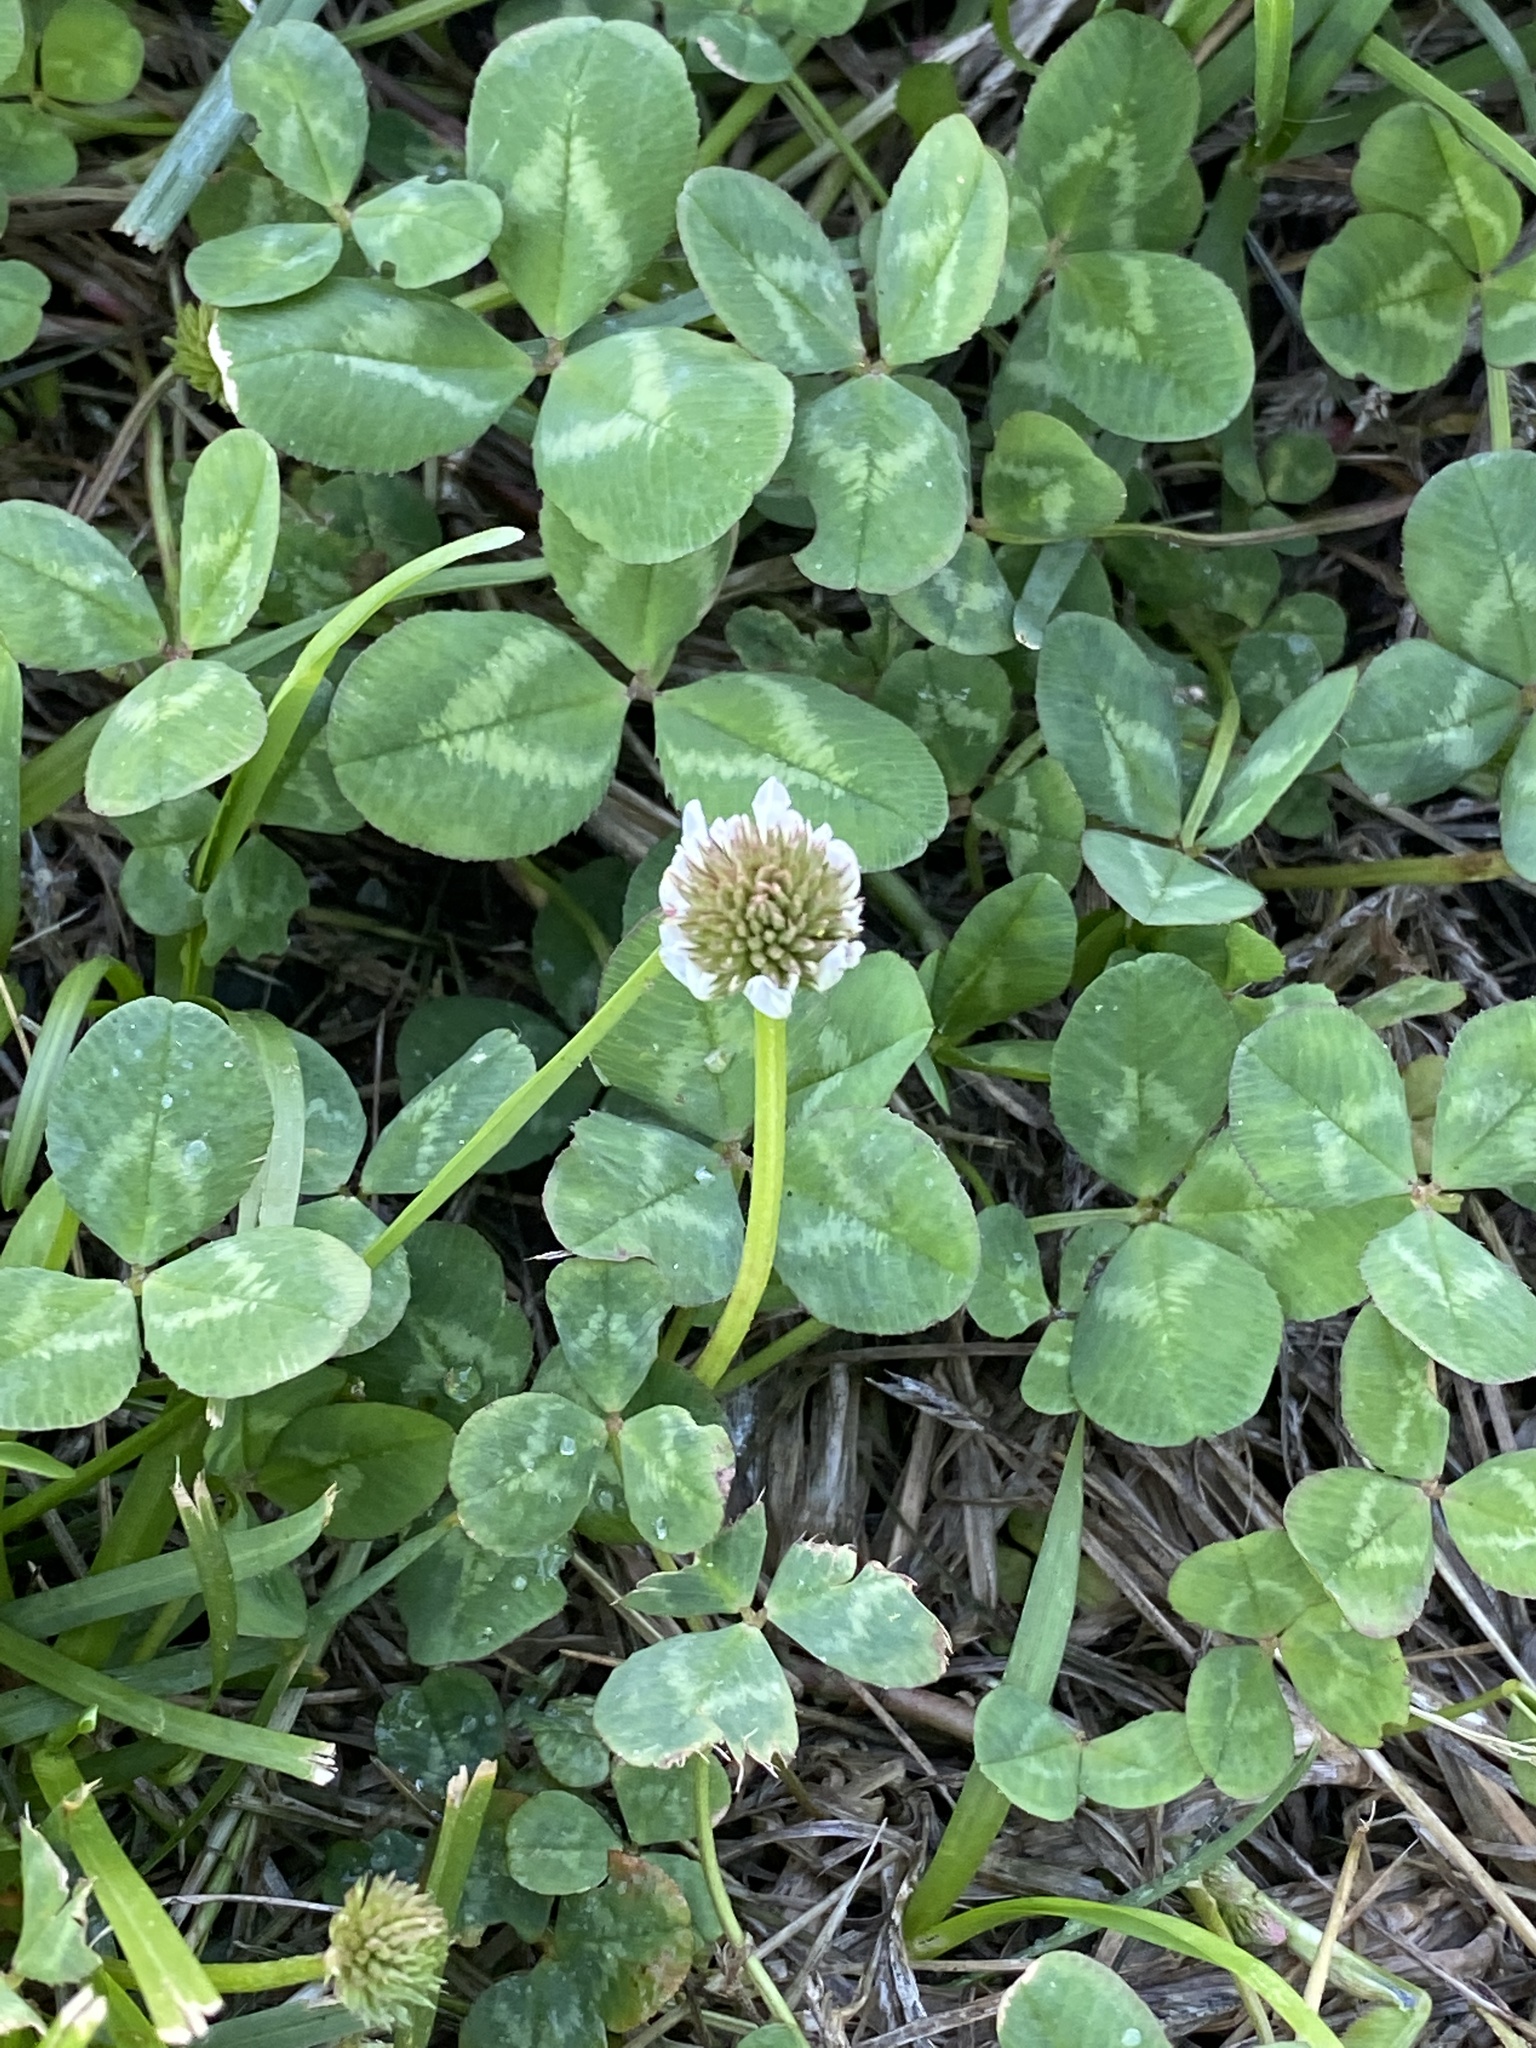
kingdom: Plantae
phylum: Tracheophyta
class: Magnoliopsida
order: Fabales
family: Fabaceae
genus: Trifolium
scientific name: Trifolium repens
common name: White clover
